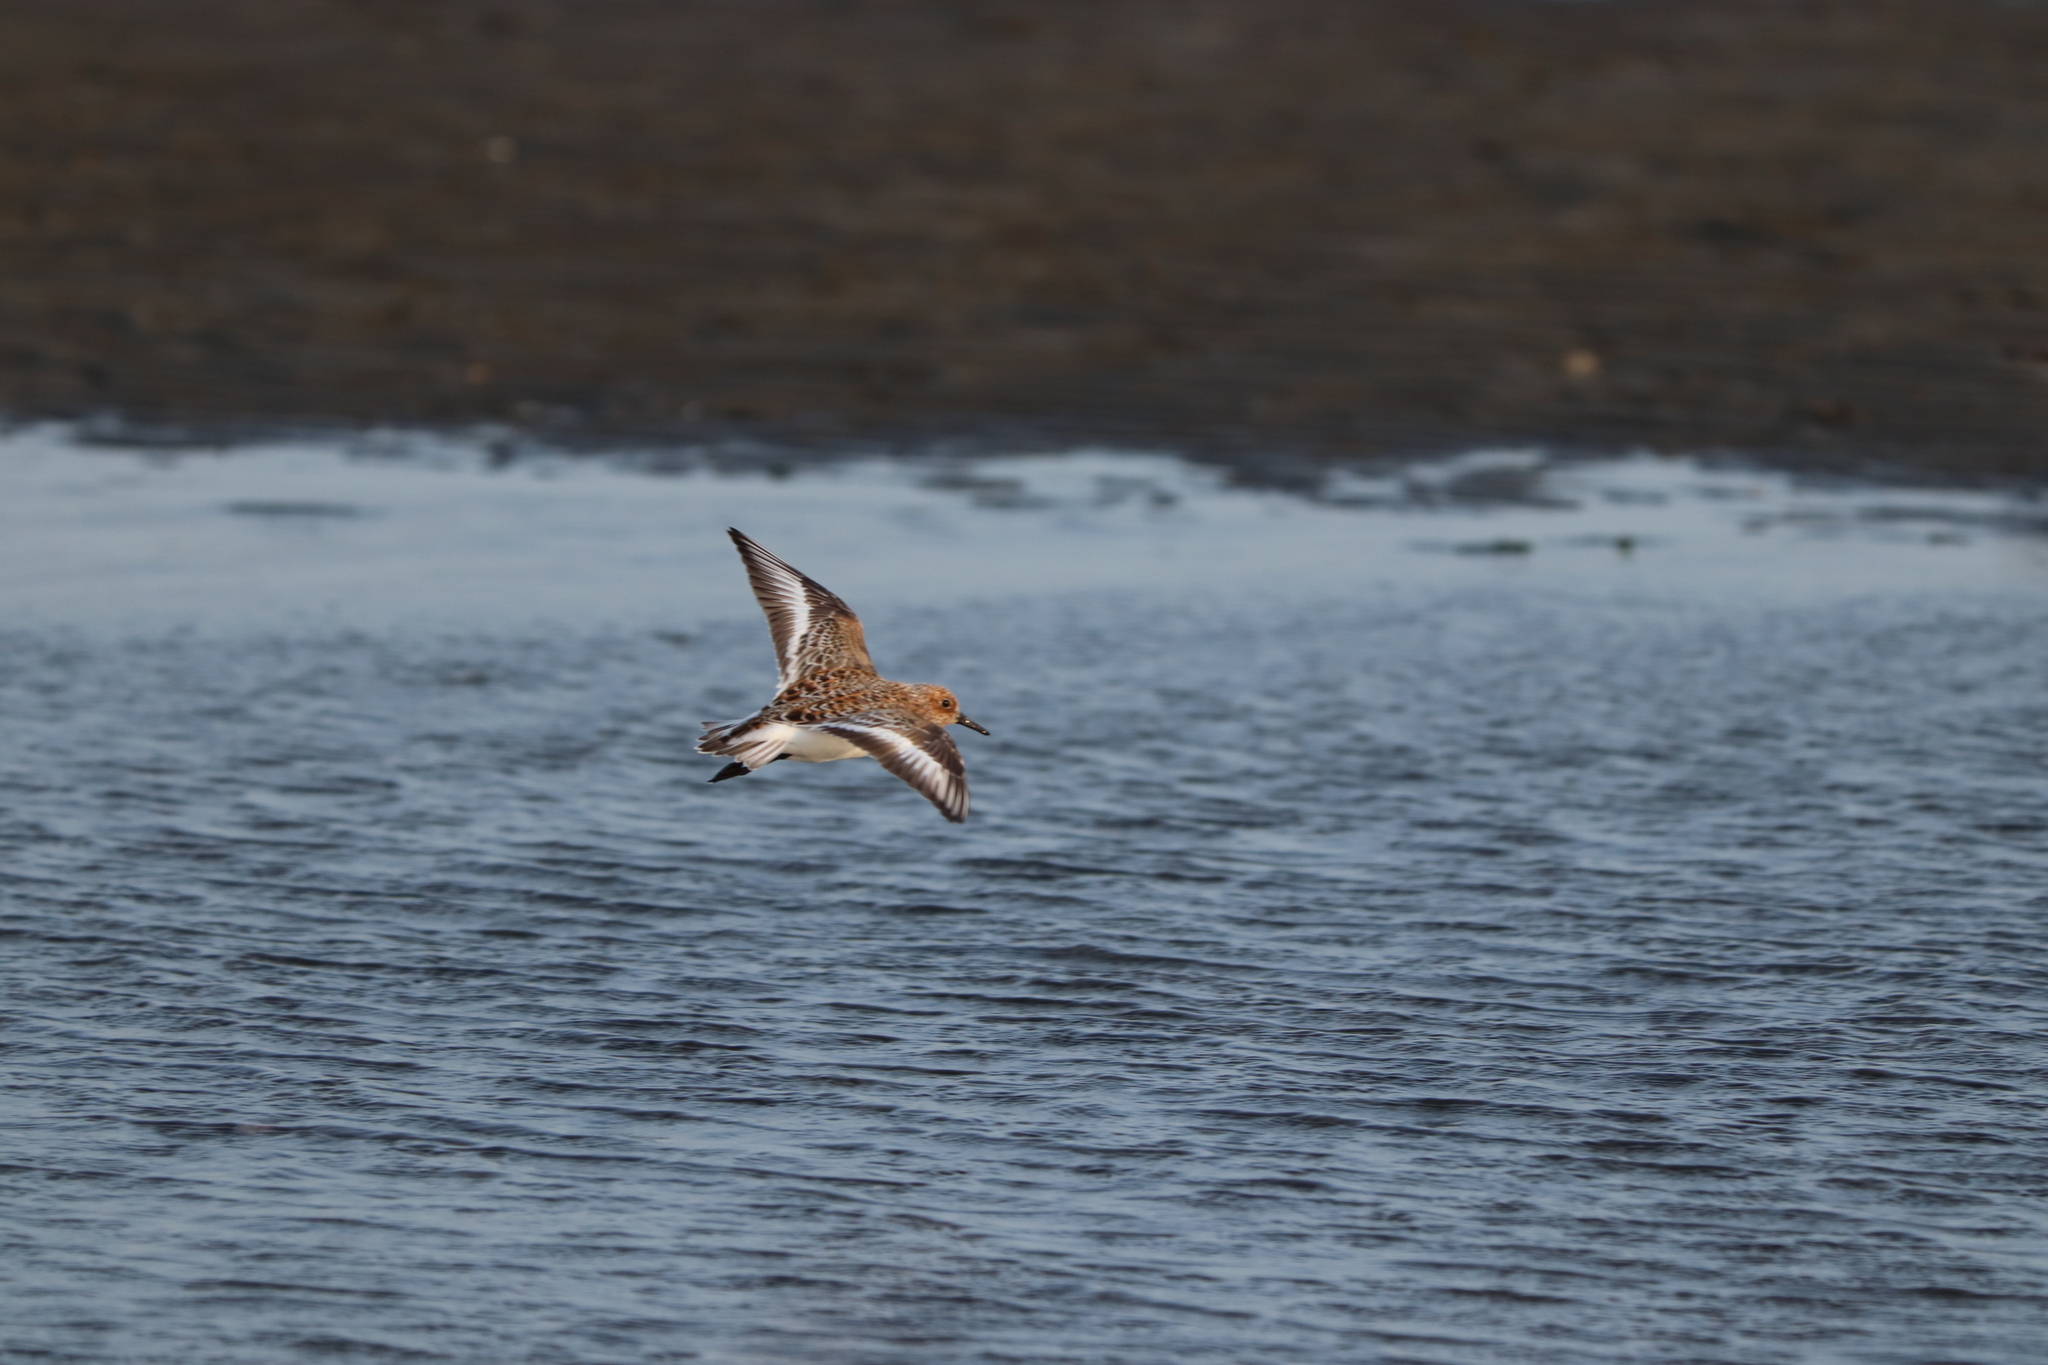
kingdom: Animalia
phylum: Chordata
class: Aves
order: Charadriiformes
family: Scolopacidae
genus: Calidris
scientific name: Calidris ruficollis
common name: Red-necked stint
